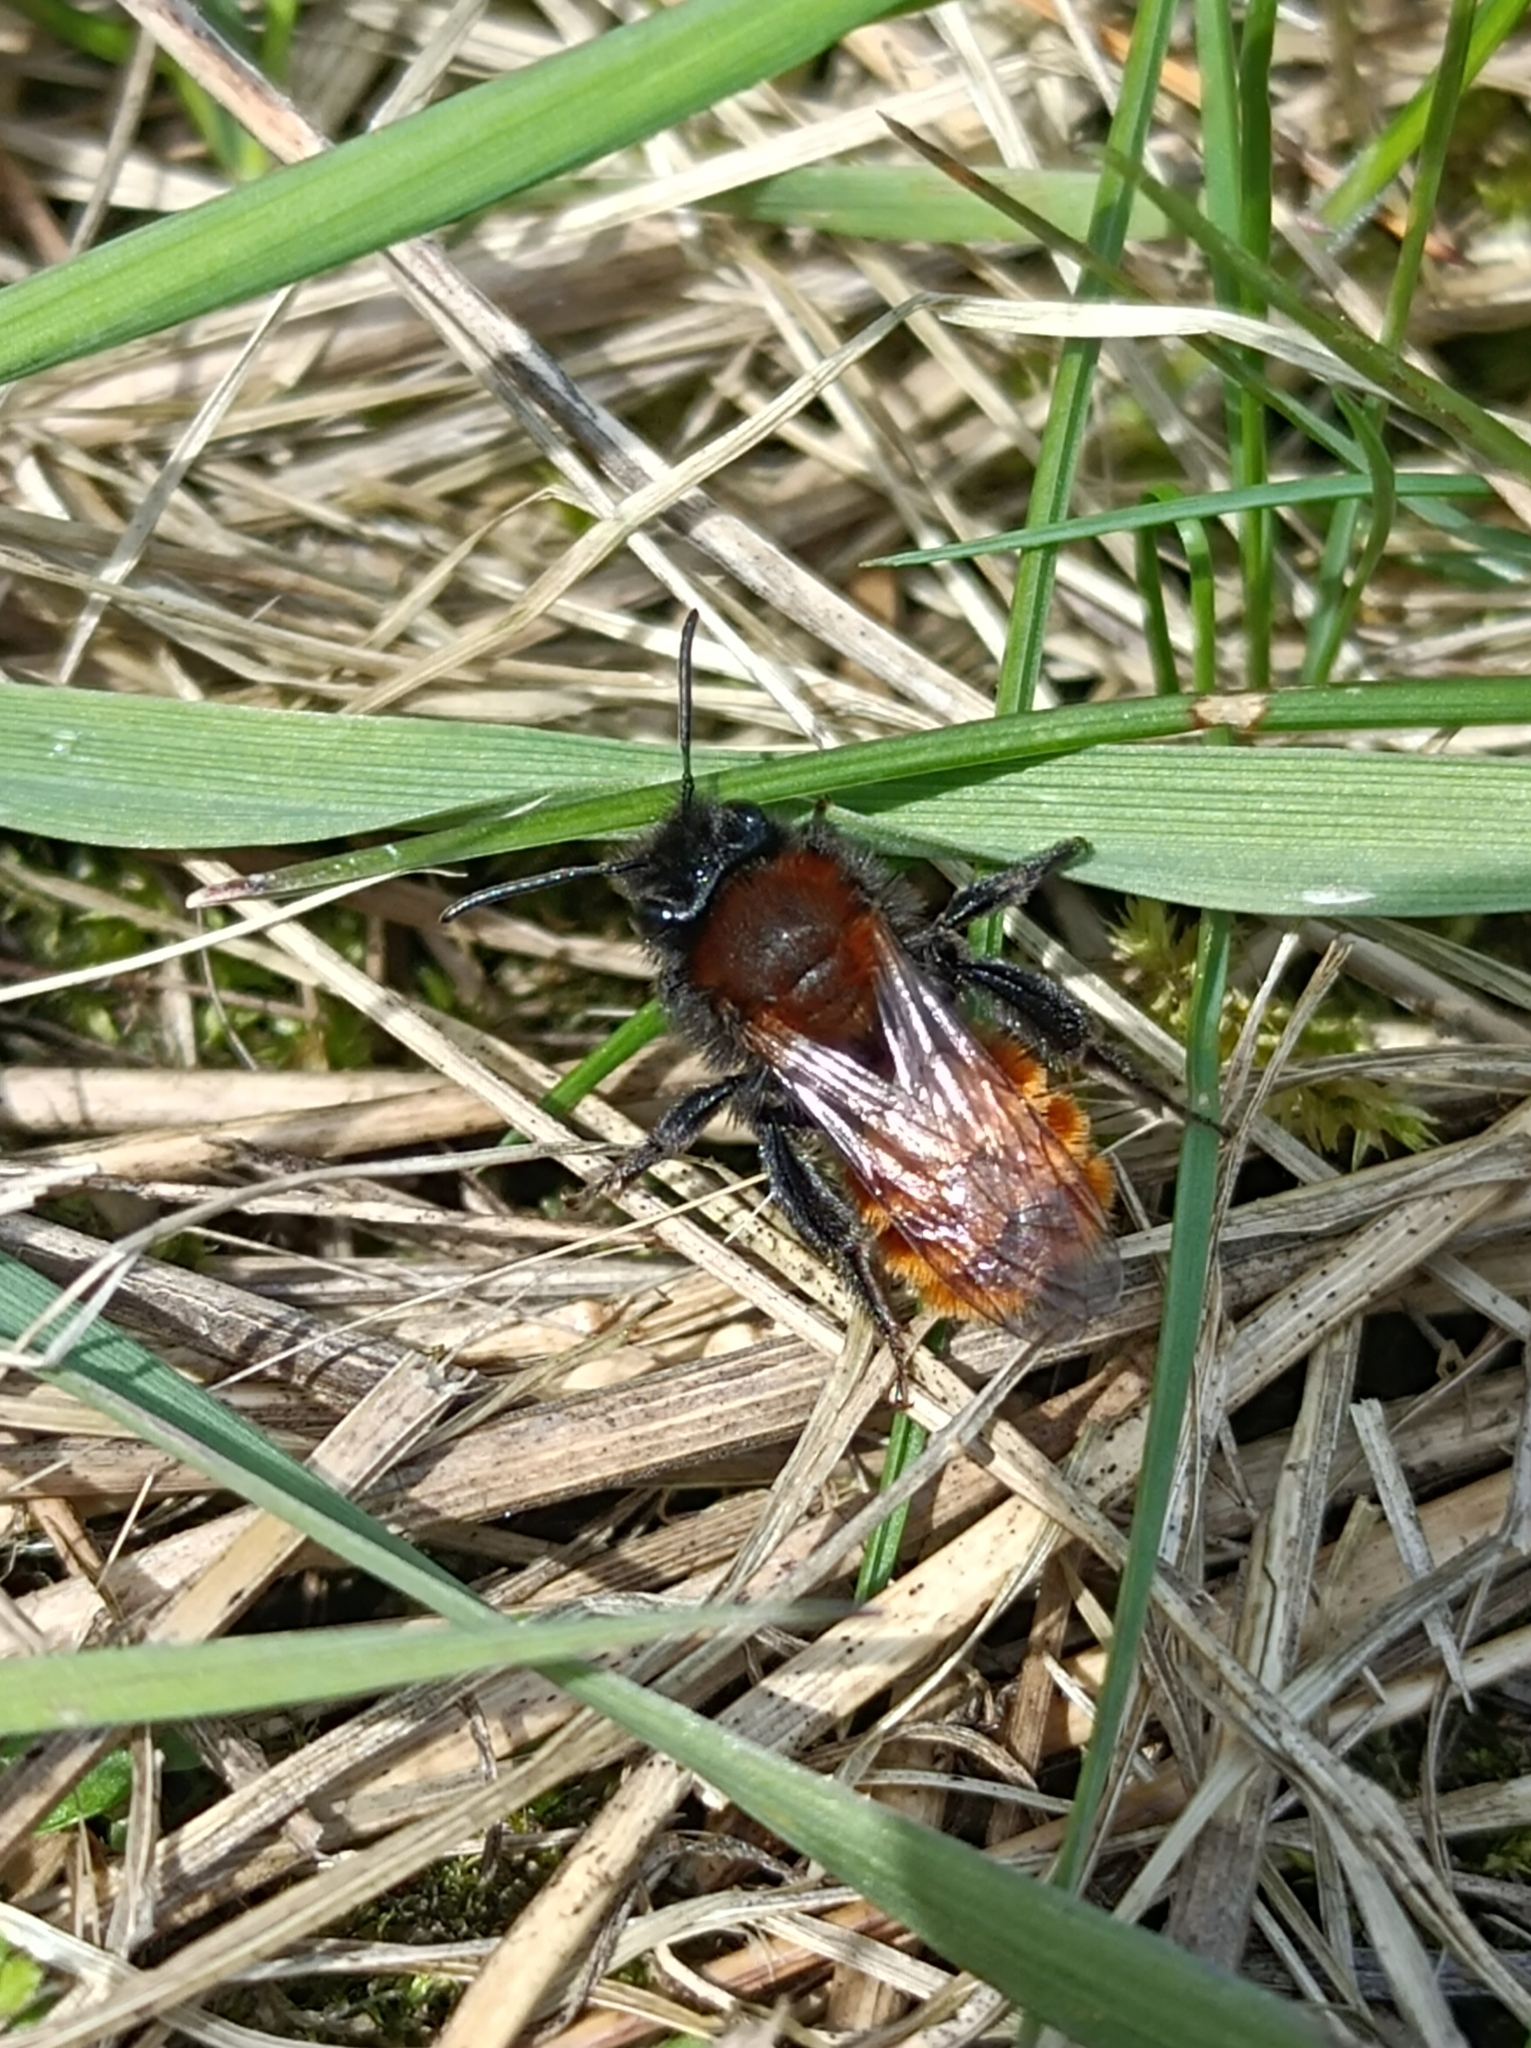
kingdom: Animalia
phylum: Arthropoda
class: Insecta
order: Hymenoptera
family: Andrenidae
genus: Andrena
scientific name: Andrena fulva
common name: Tawny mining bee
